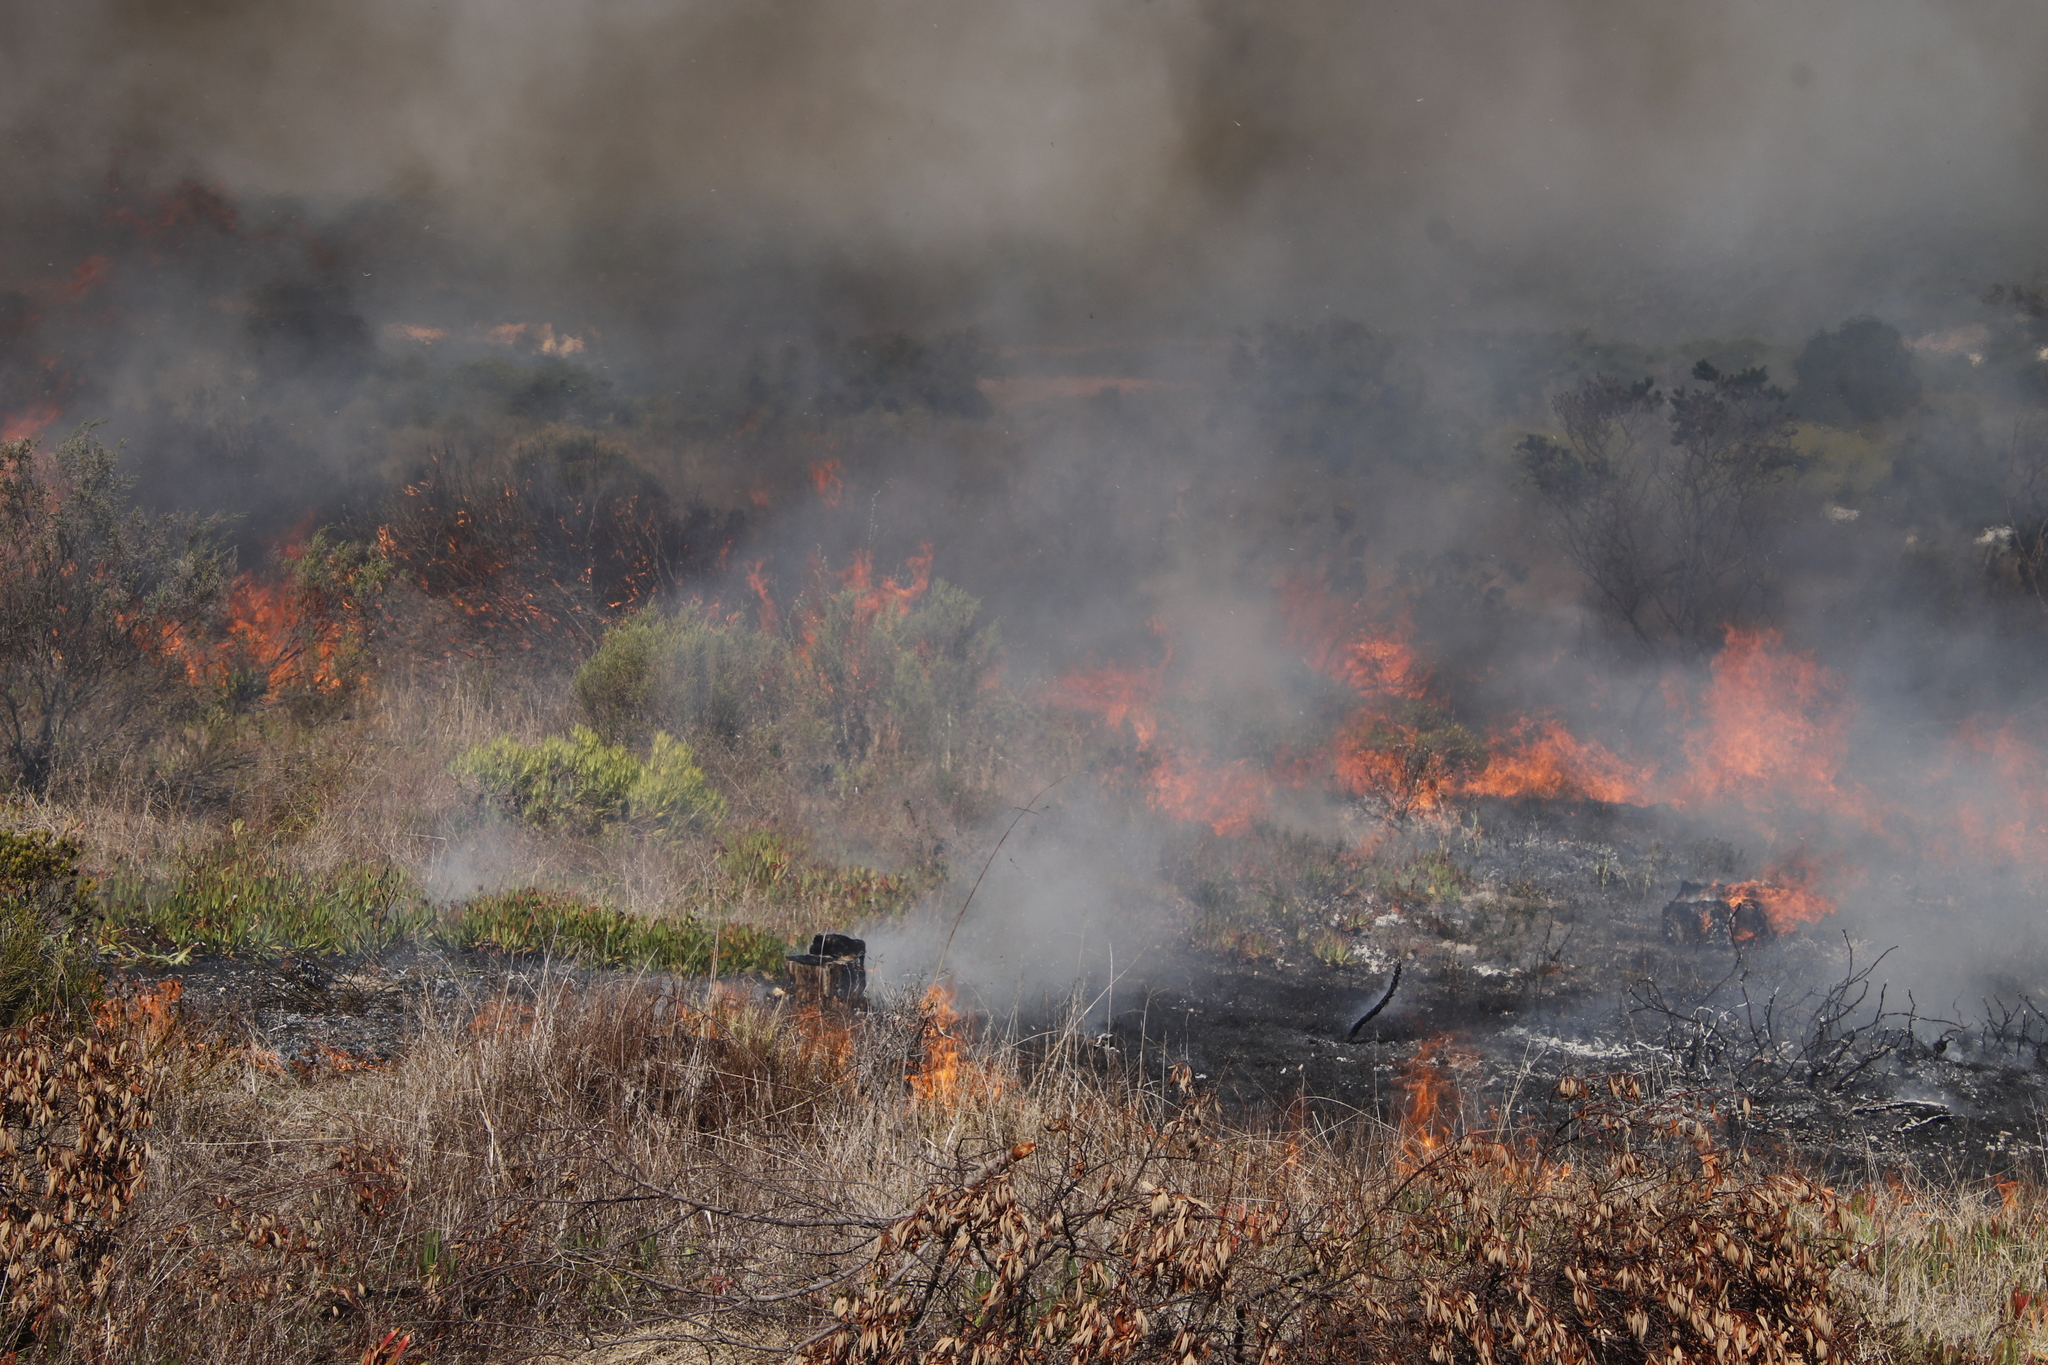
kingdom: Plantae
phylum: Tracheophyta
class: Magnoliopsida
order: Caryophyllales
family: Aizoaceae
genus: Carpobrotus
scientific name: Carpobrotus edulis
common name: Hottentot-fig
